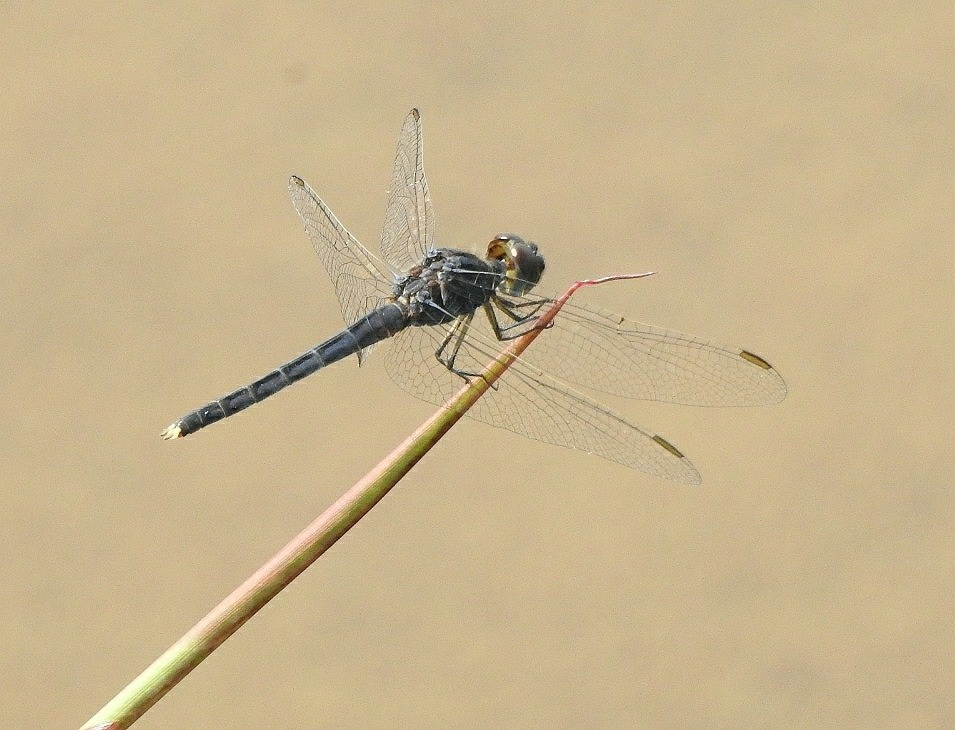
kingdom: Animalia
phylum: Arthropoda
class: Insecta
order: Odonata
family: Libellulidae
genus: Indothemis
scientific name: Indothemis carnatica
